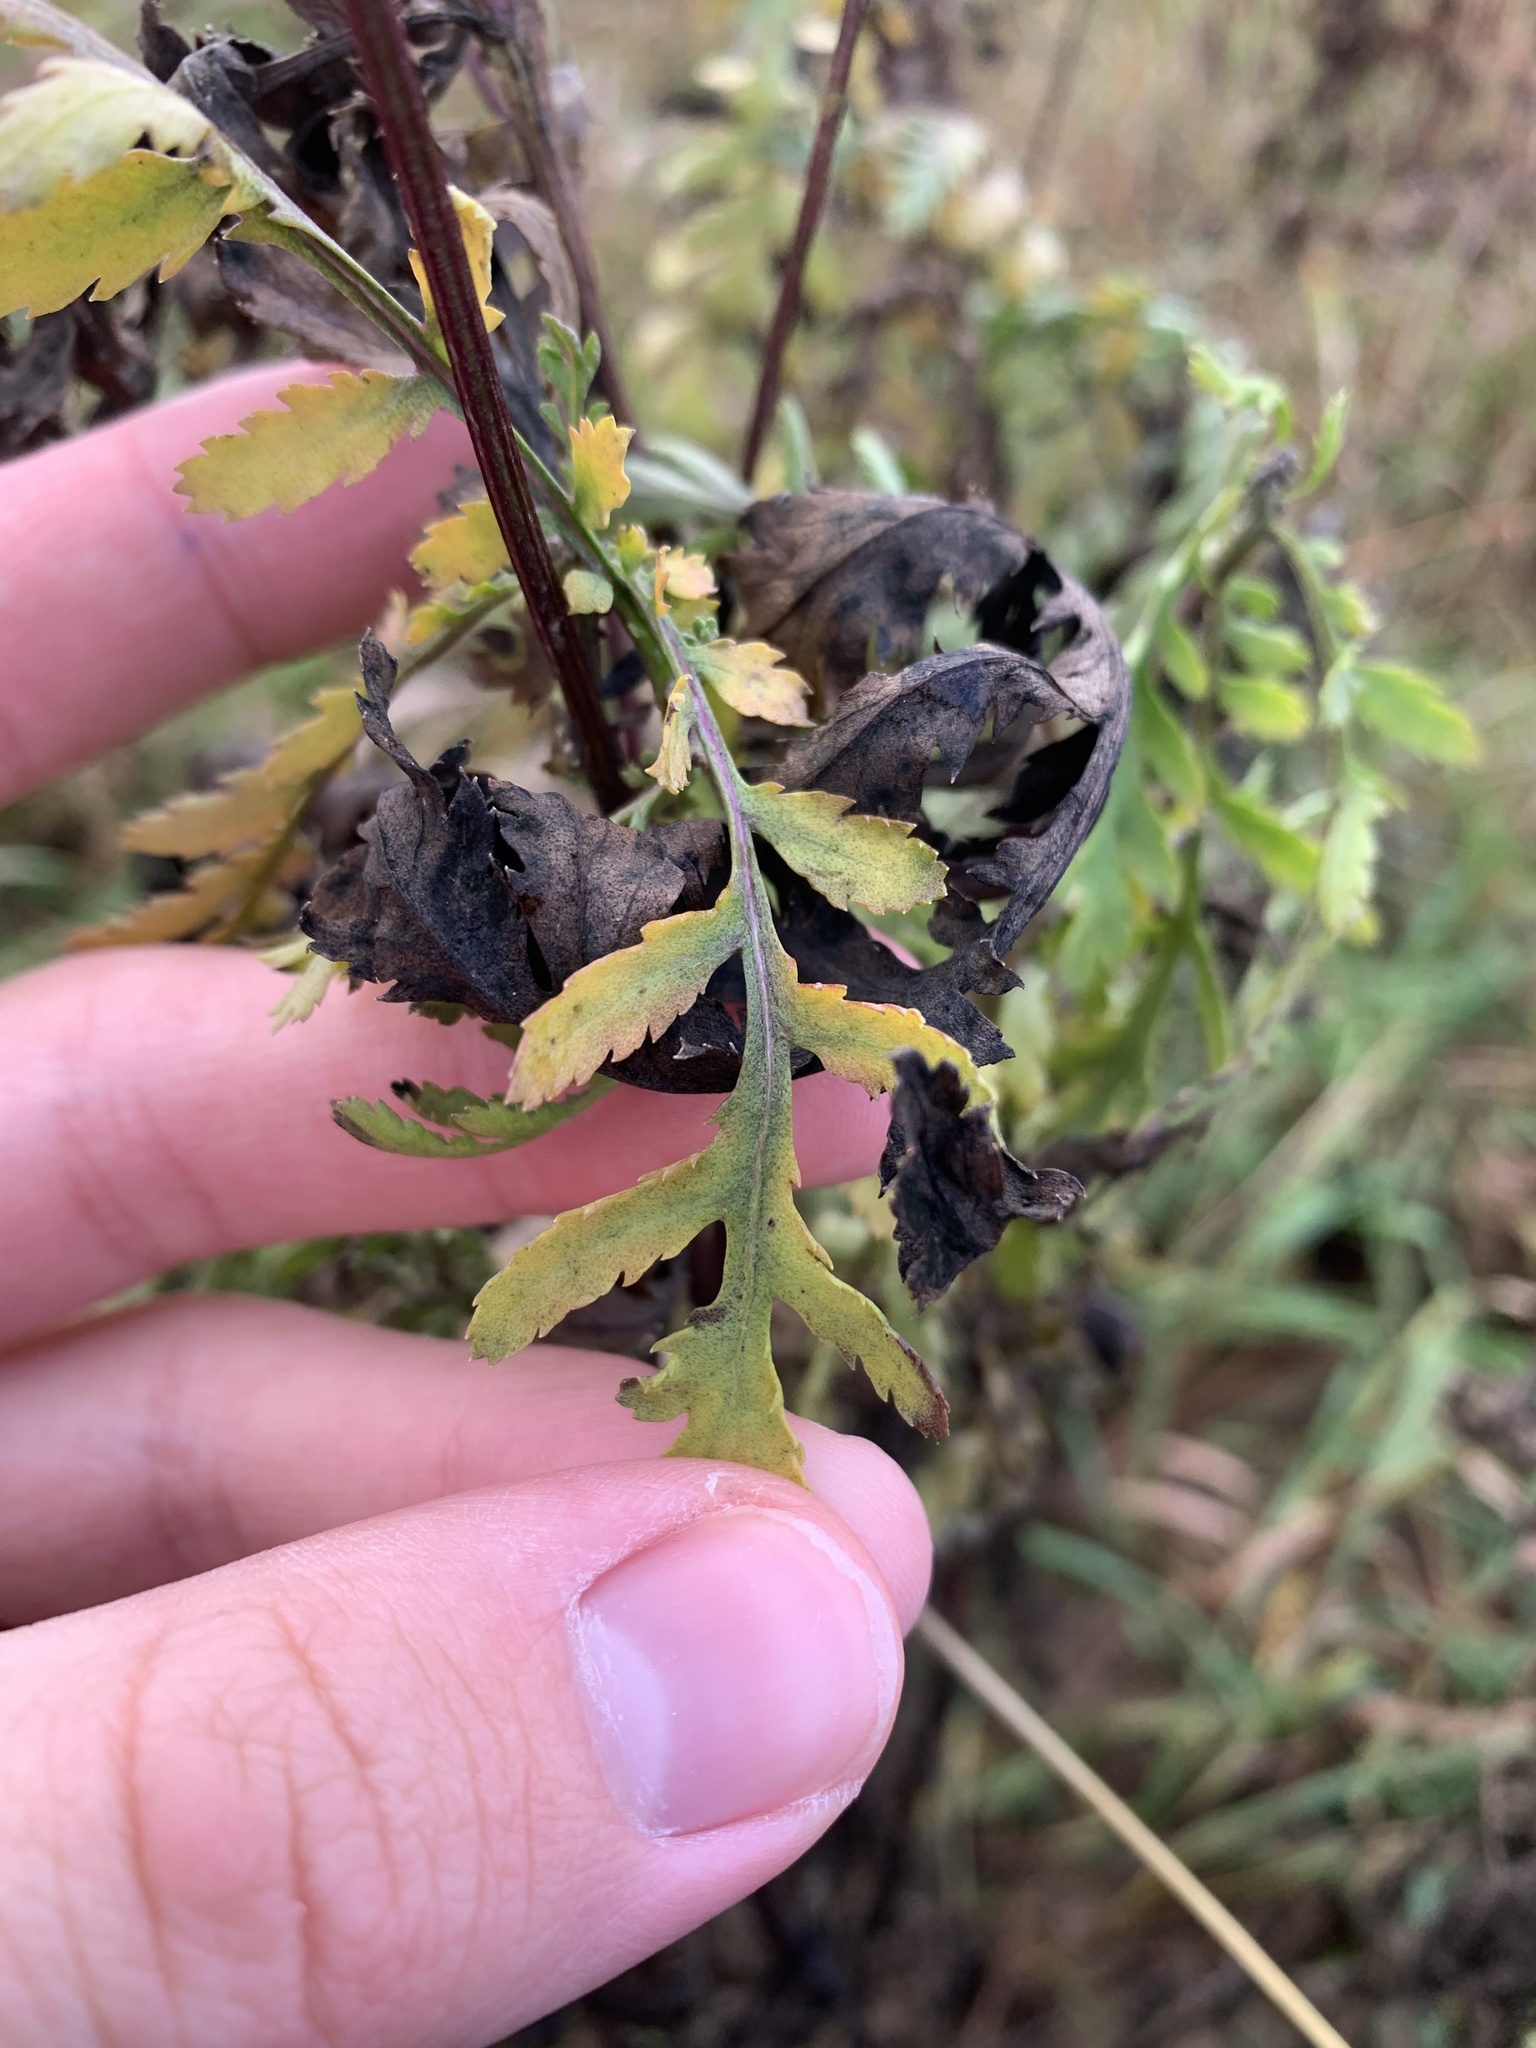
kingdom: Plantae
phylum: Tracheophyta
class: Magnoliopsida
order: Asterales
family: Asteraceae
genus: Tanacetum
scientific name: Tanacetum vulgare
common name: Common tansy
